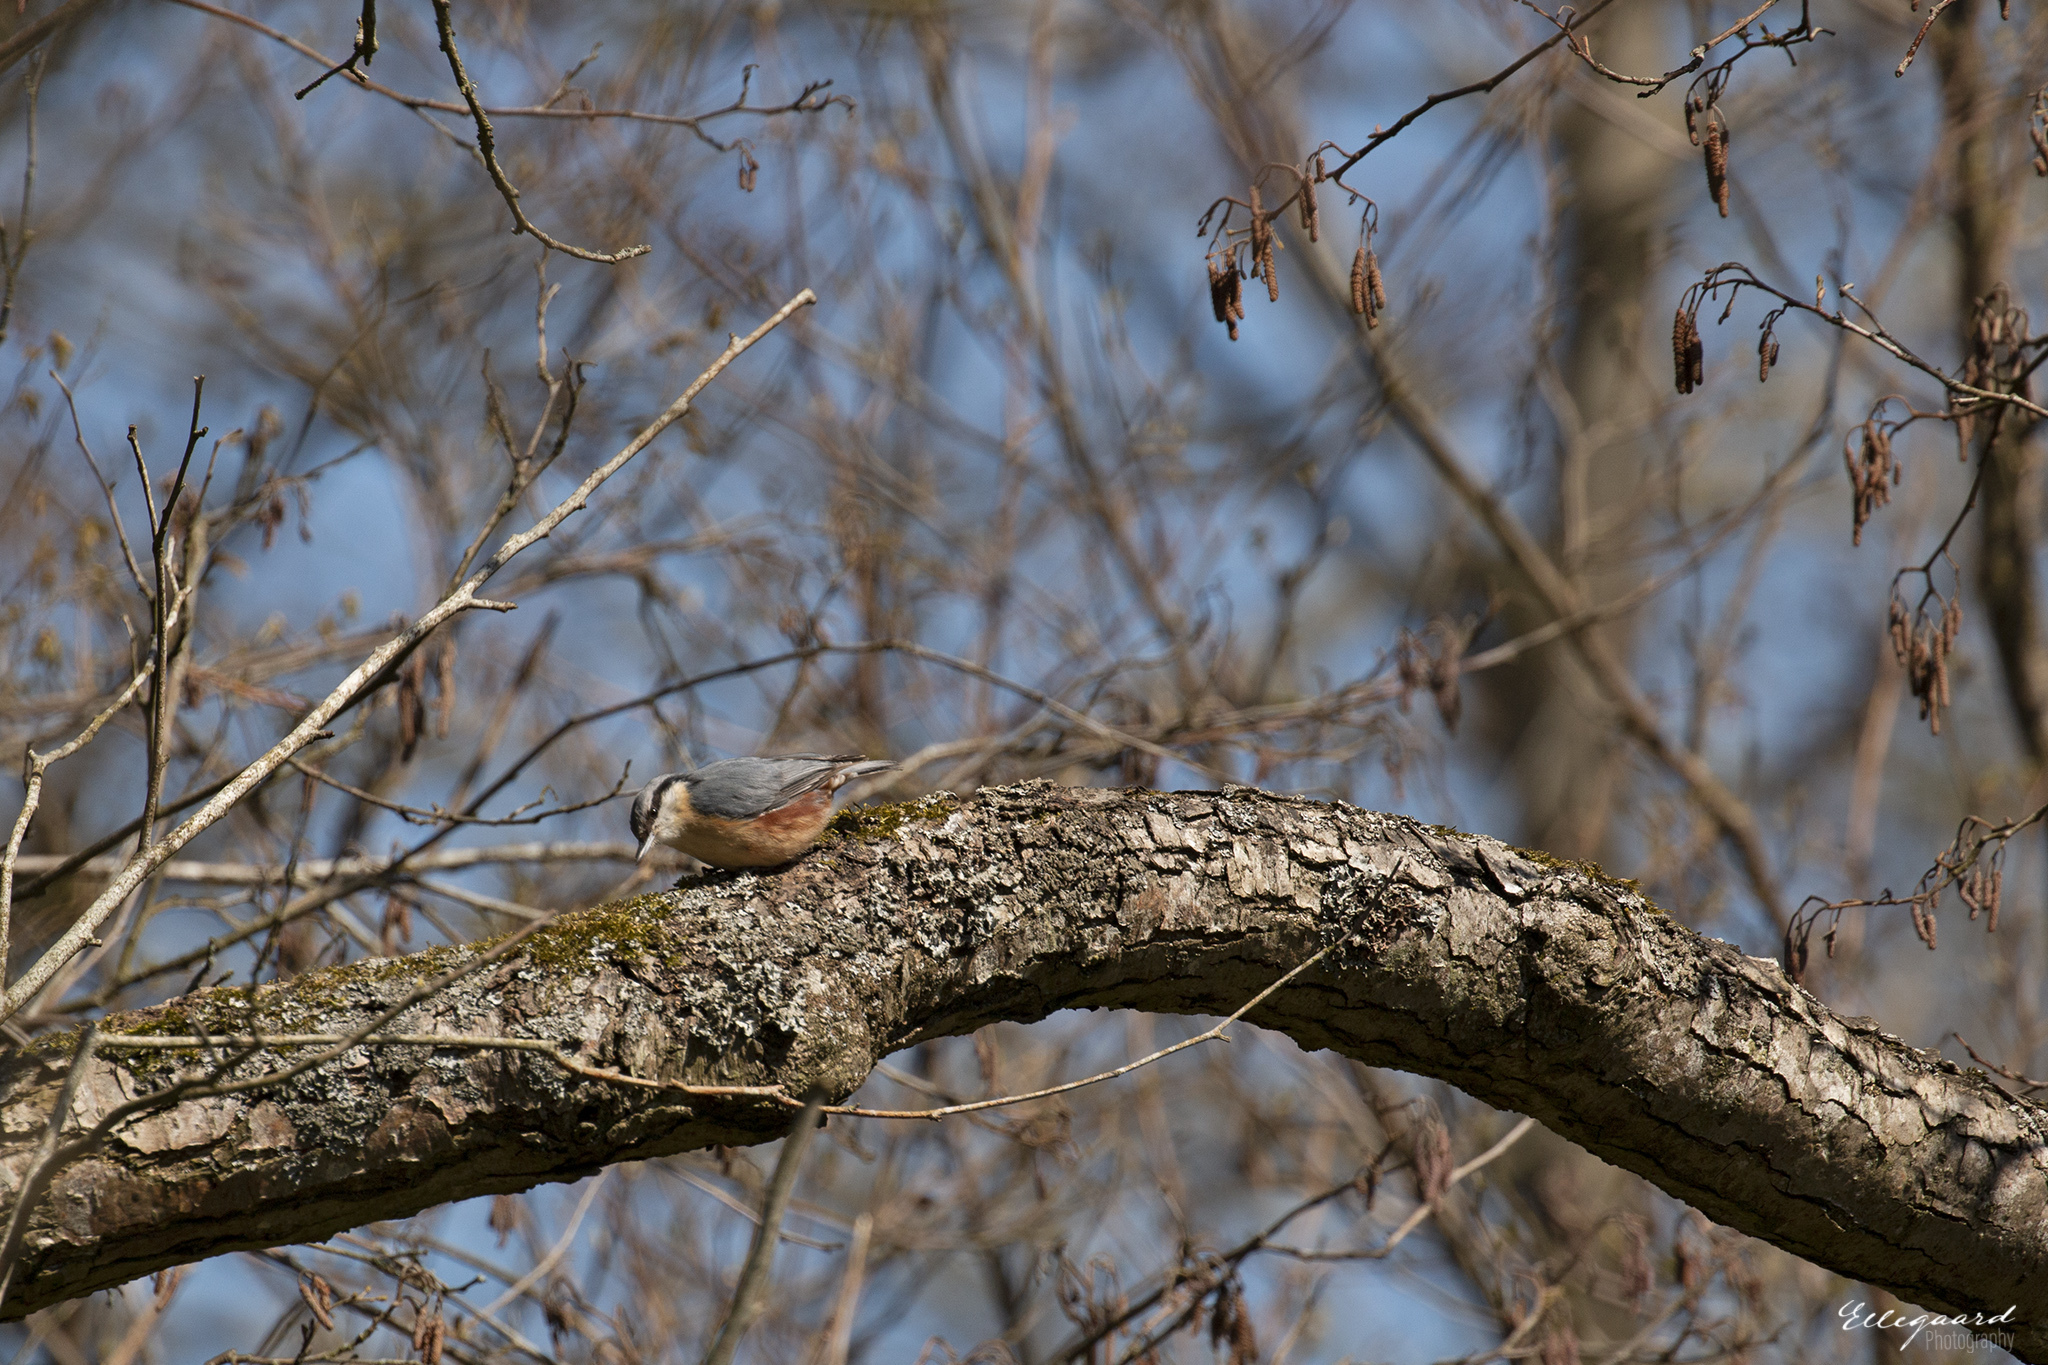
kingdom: Animalia
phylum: Chordata
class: Aves
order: Passeriformes
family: Sittidae
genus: Sitta
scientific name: Sitta europaea
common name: Eurasian nuthatch
